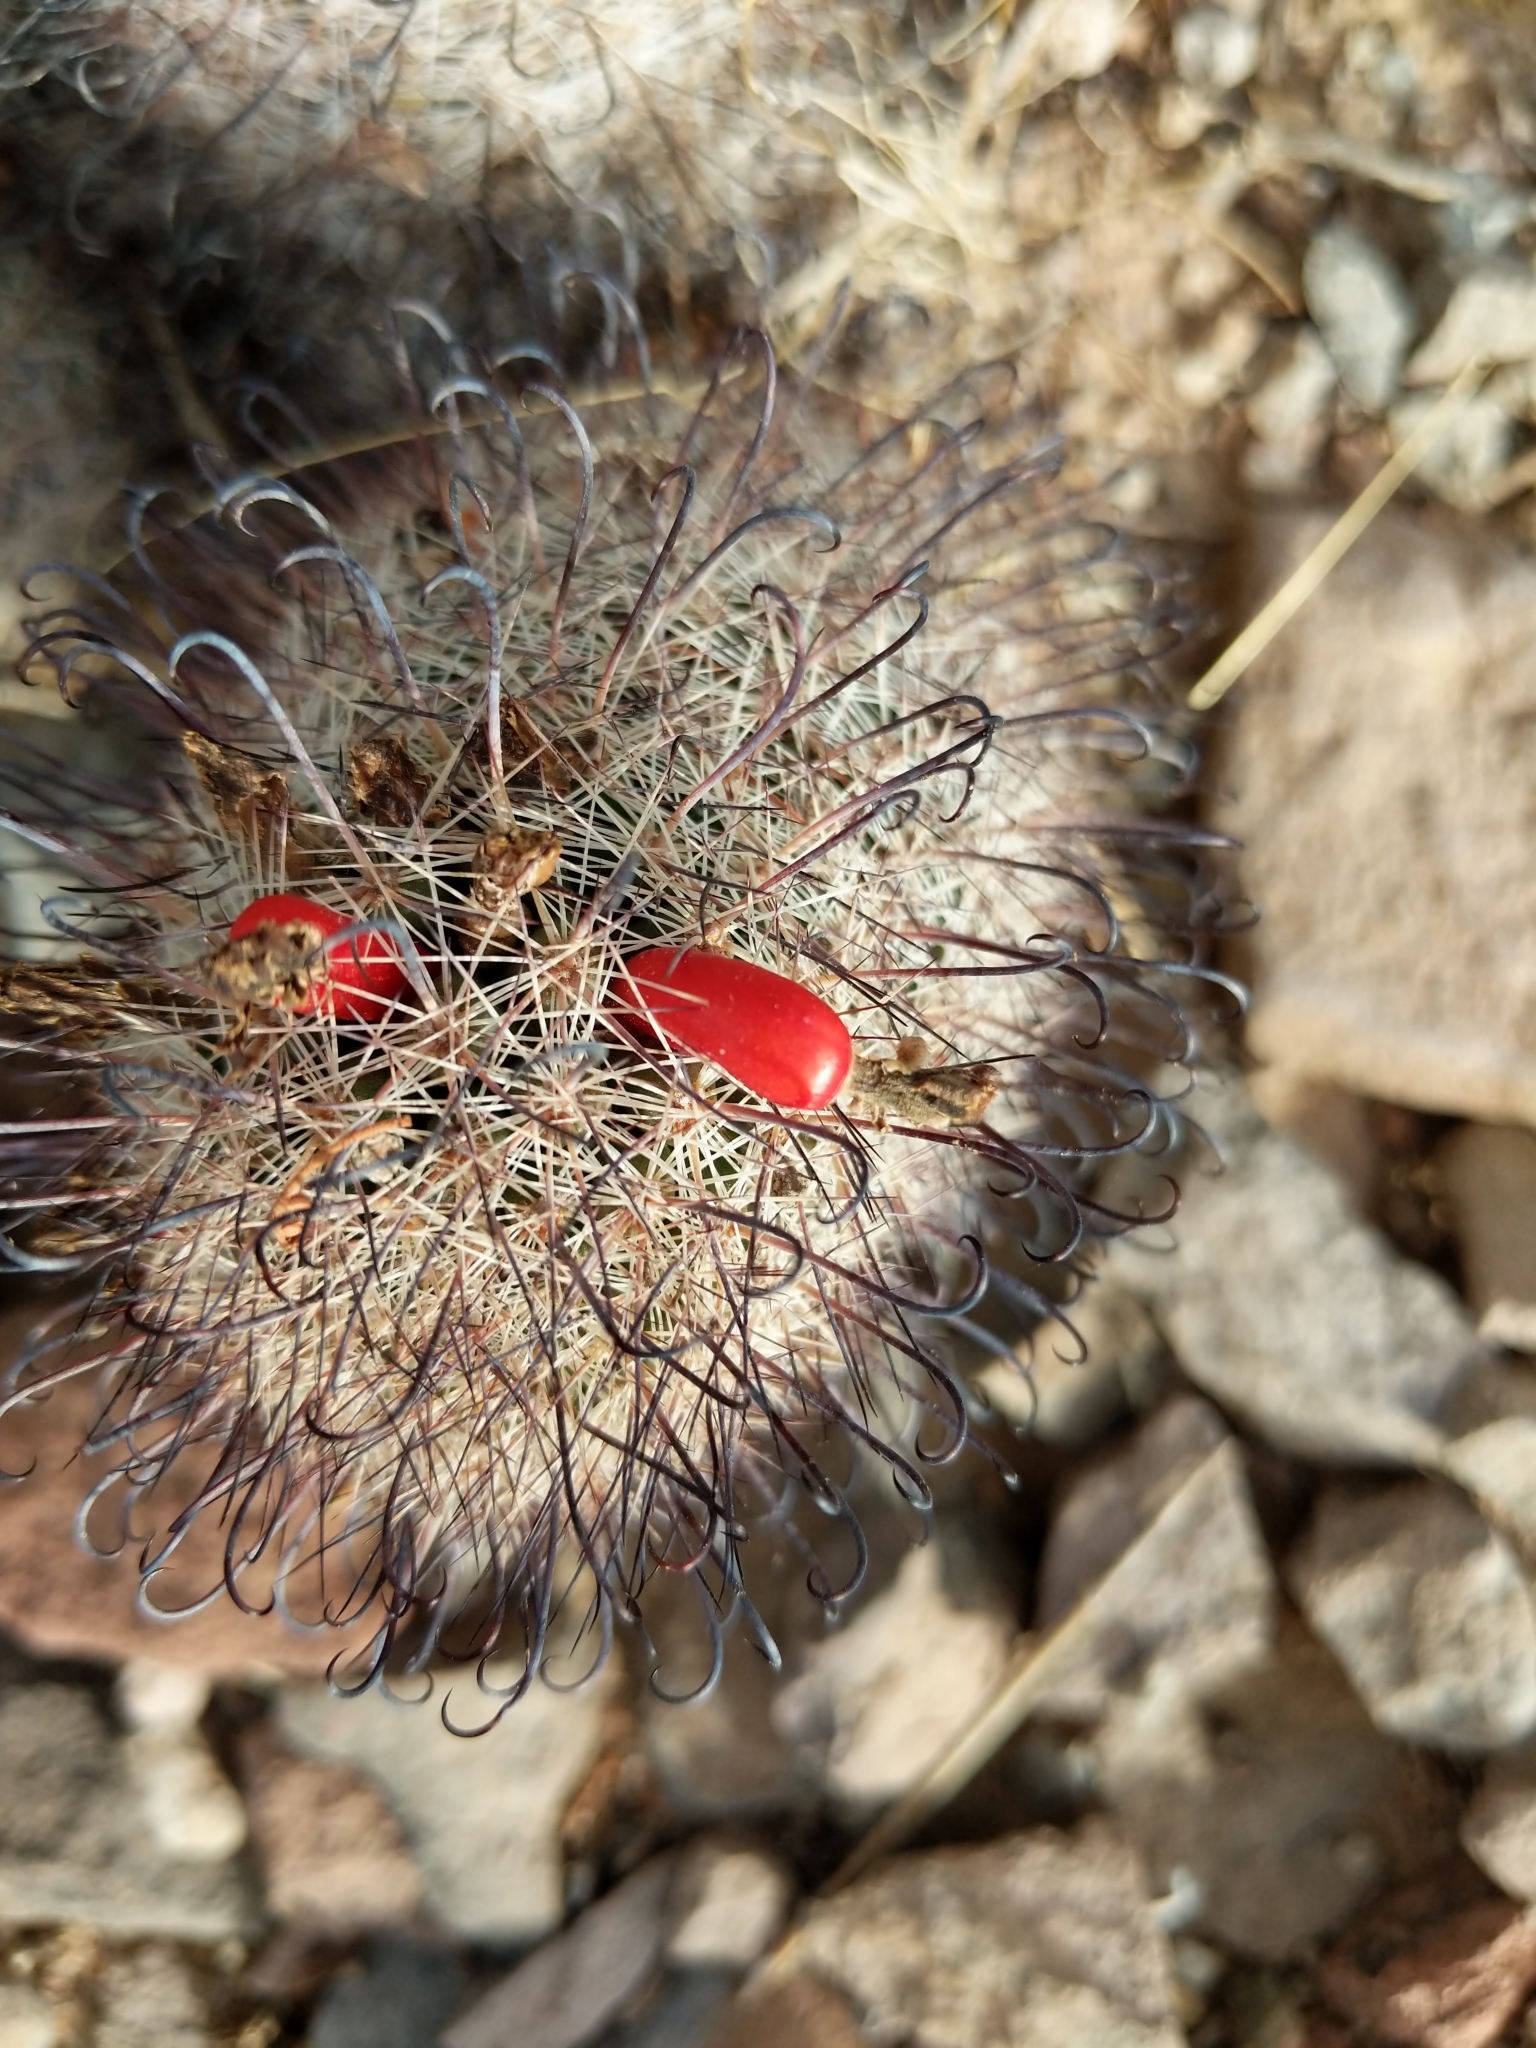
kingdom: Plantae
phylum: Tracheophyta
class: Magnoliopsida
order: Caryophyllales
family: Cactaceae
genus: Cochemiea
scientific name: Cochemiea grahamii
